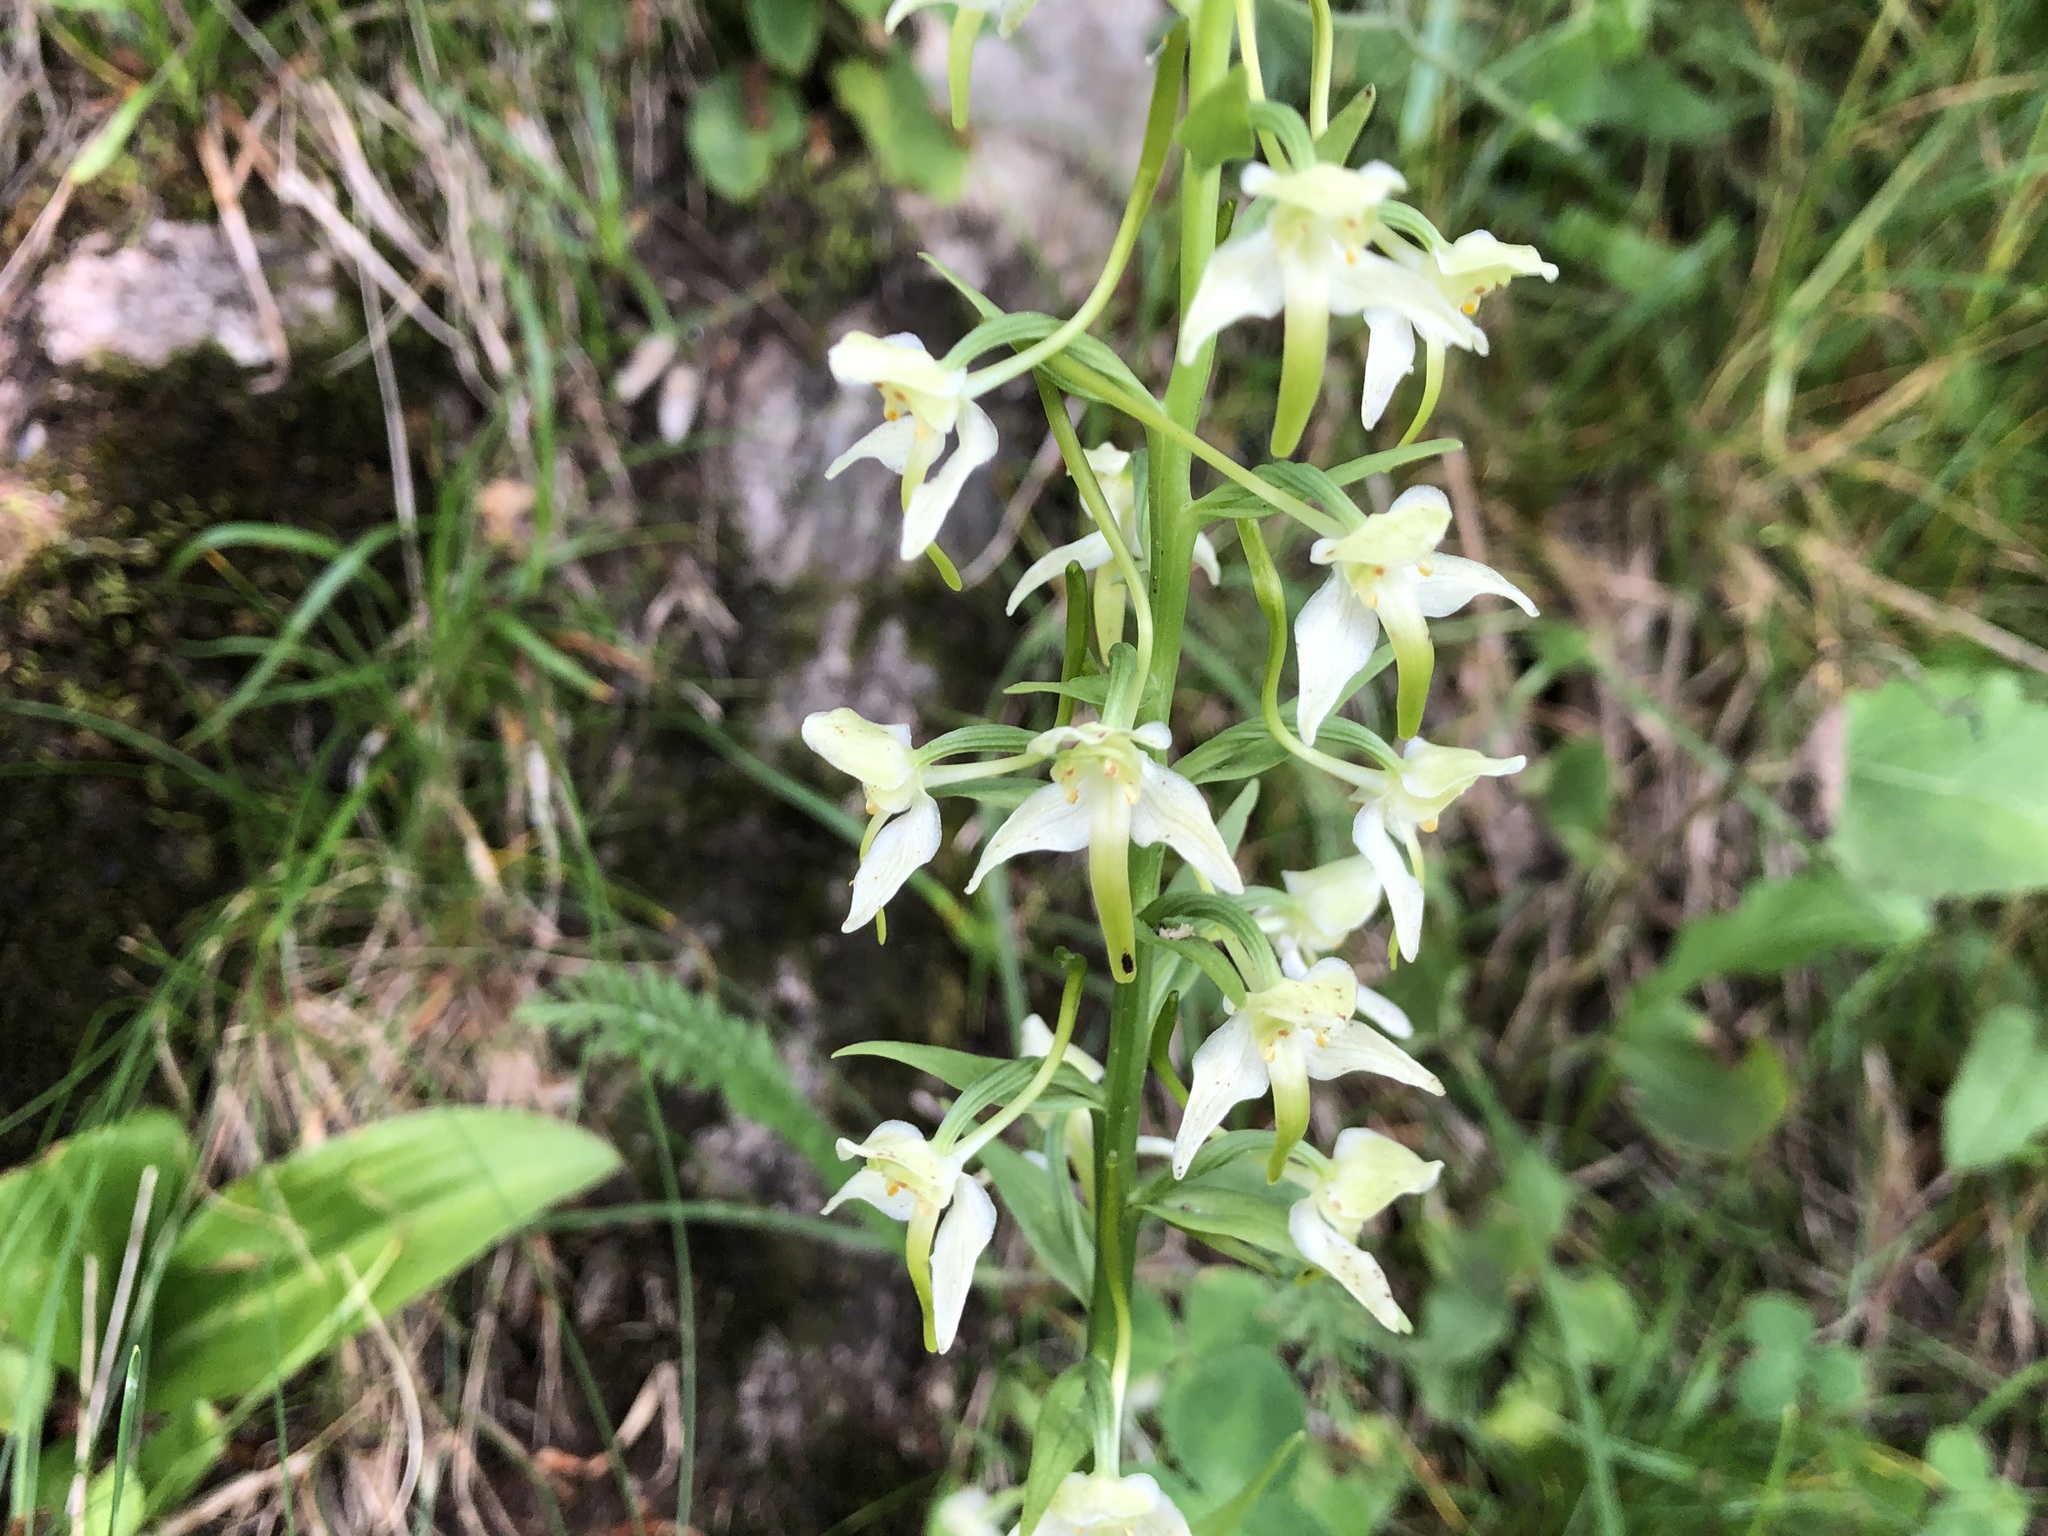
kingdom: Plantae
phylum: Tracheophyta
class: Liliopsida
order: Asparagales
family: Orchidaceae
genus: Platanthera
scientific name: Platanthera chlorantha
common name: Greater butterfly-orchid
